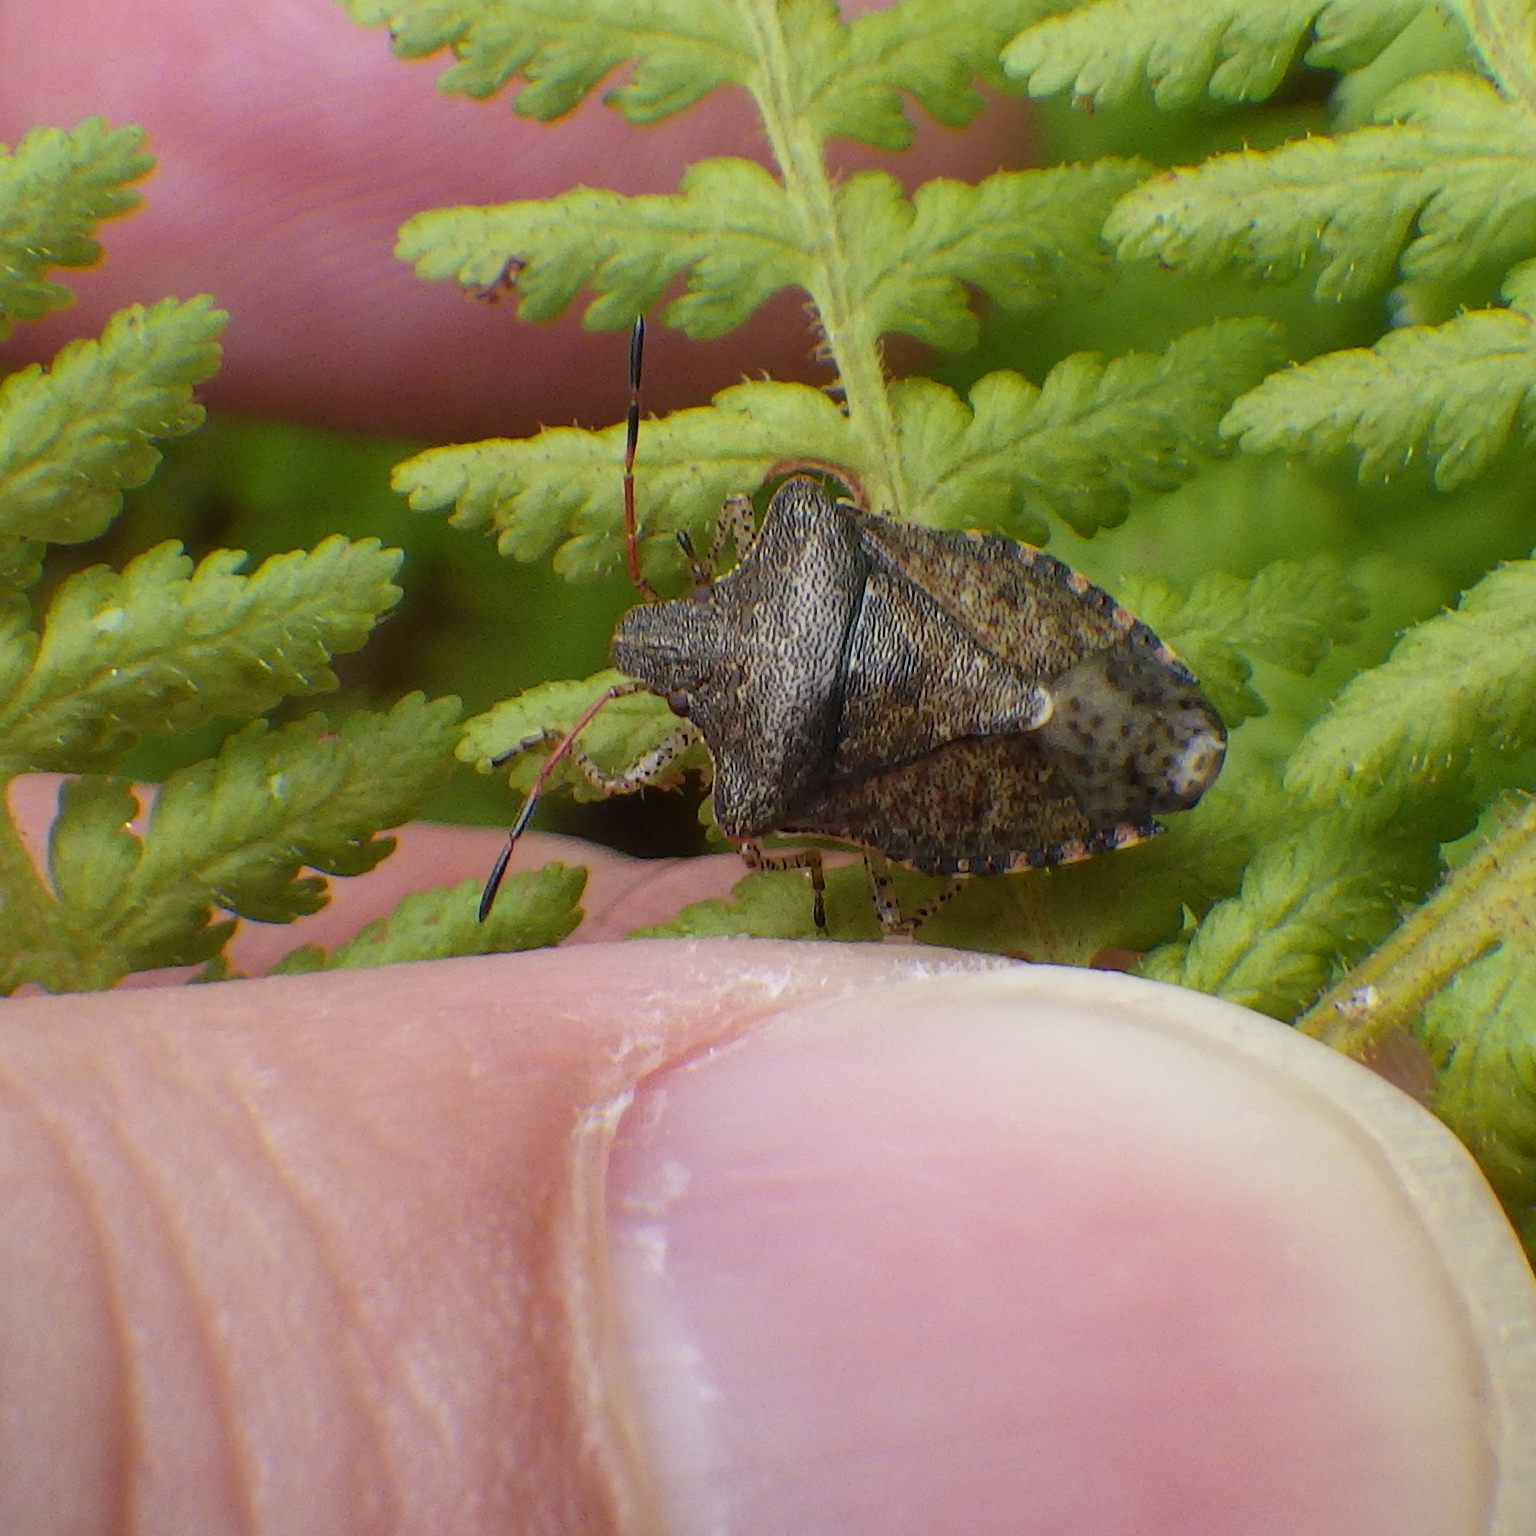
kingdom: Animalia
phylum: Arthropoda
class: Insecta
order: Hemiptera
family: Pentatomidae
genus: Euschistus
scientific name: Euschistus tristigmus
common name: Dusky stink bug
